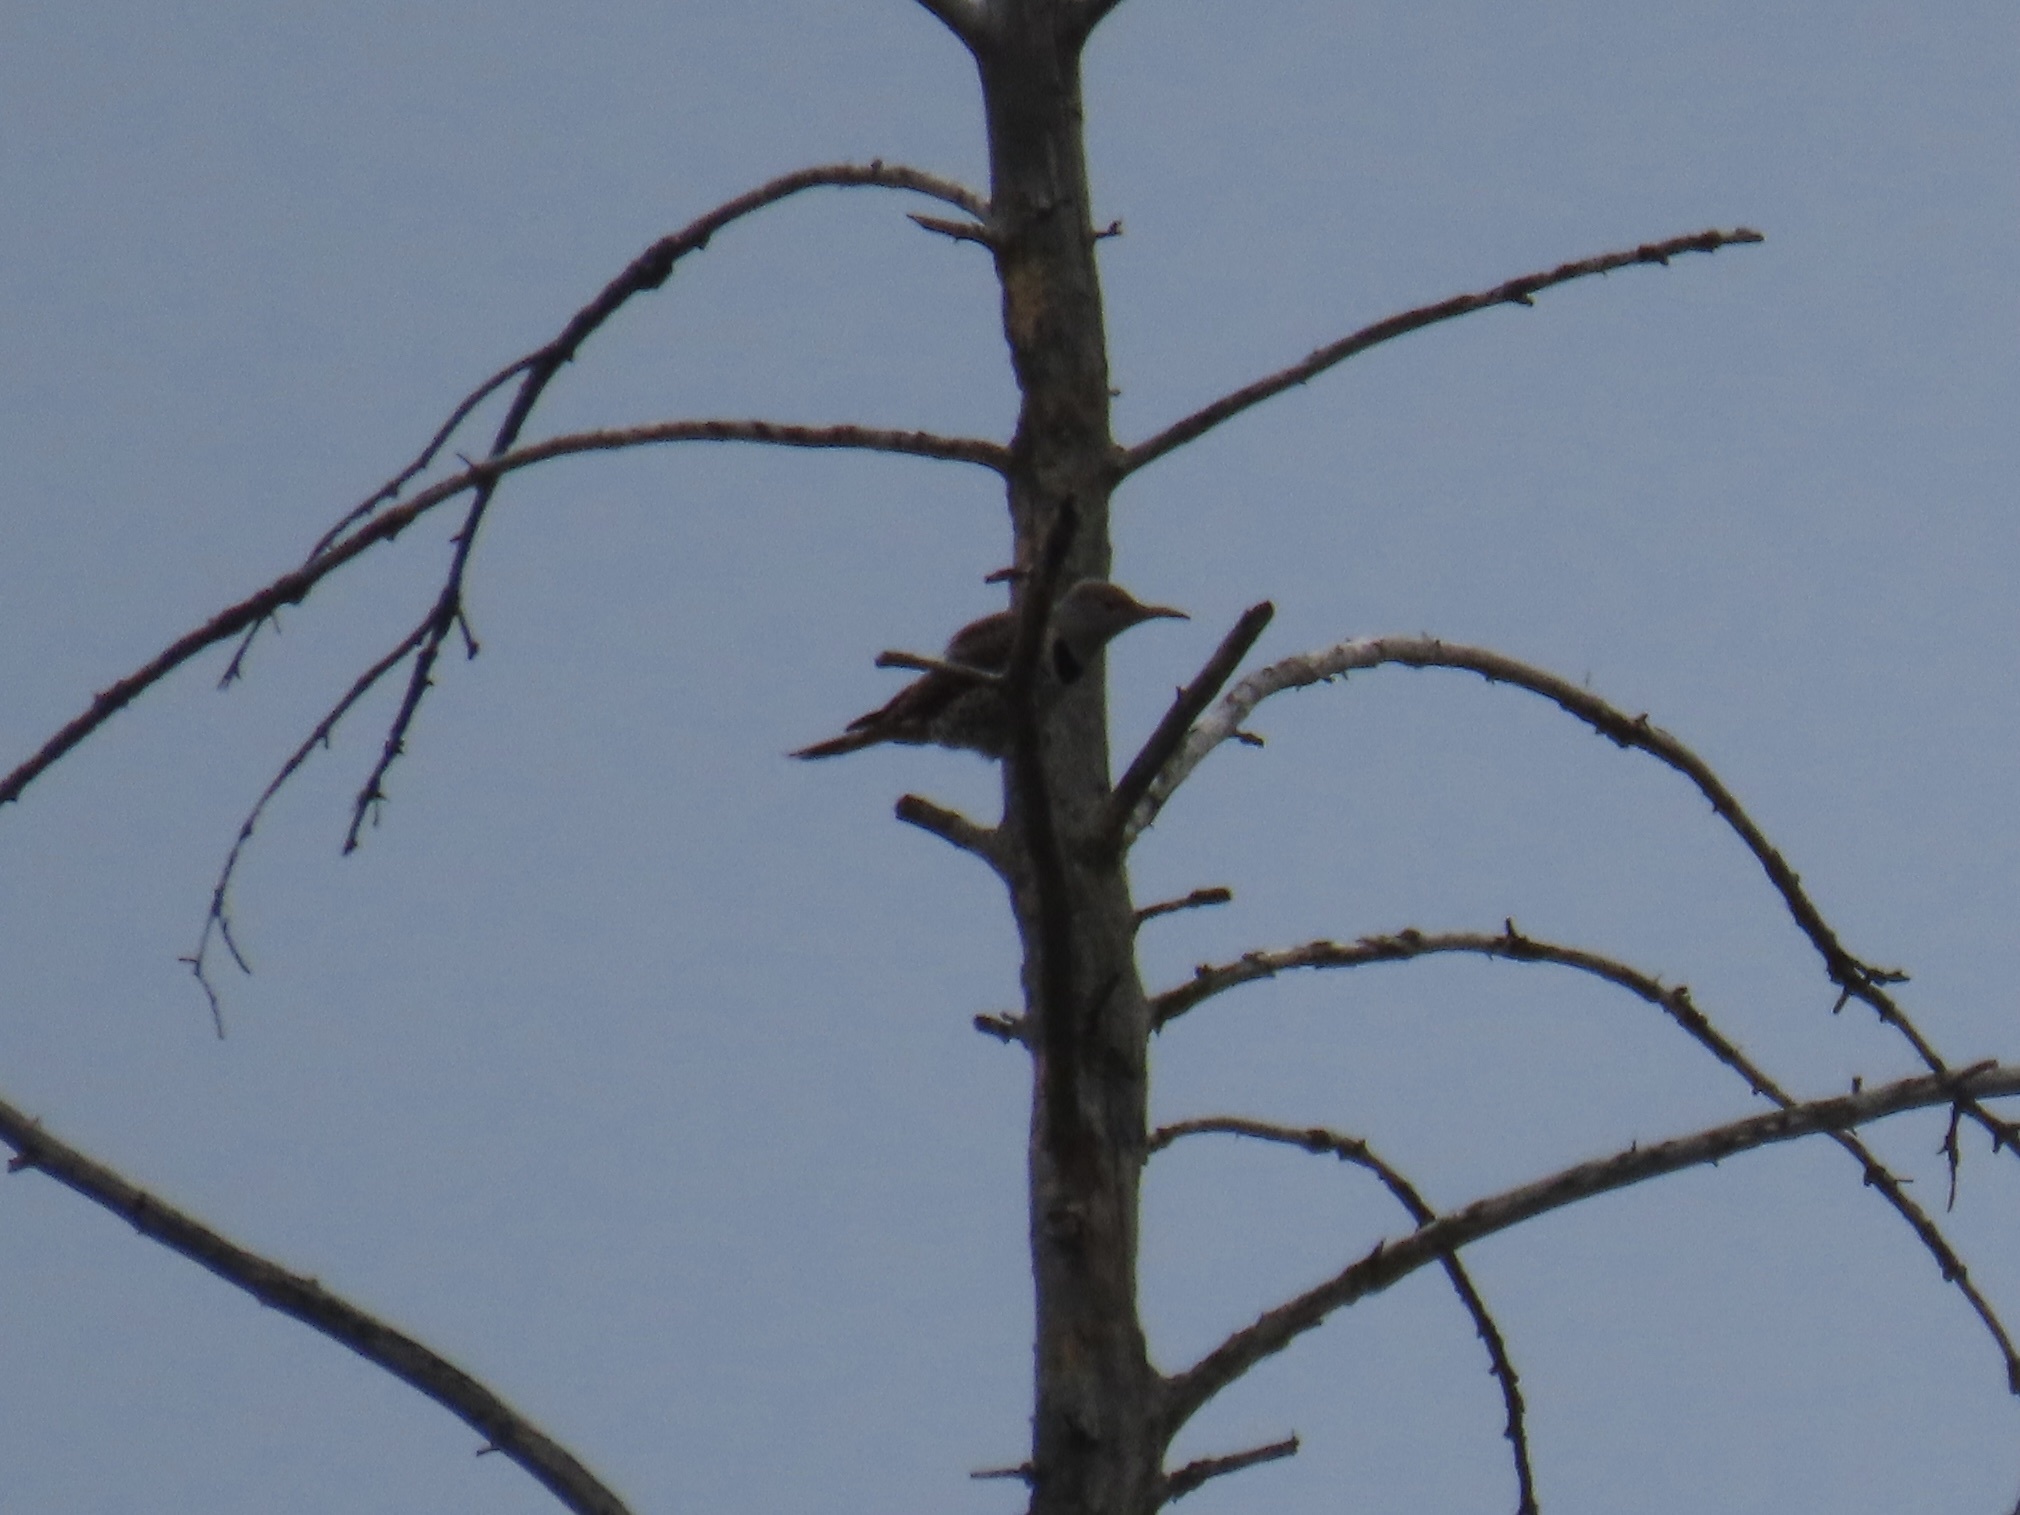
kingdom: Animalia
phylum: Chordata
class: Aves
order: Piciformes
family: Picidae
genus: Colaptes
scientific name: Colaptes auratus
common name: Northern flicker
